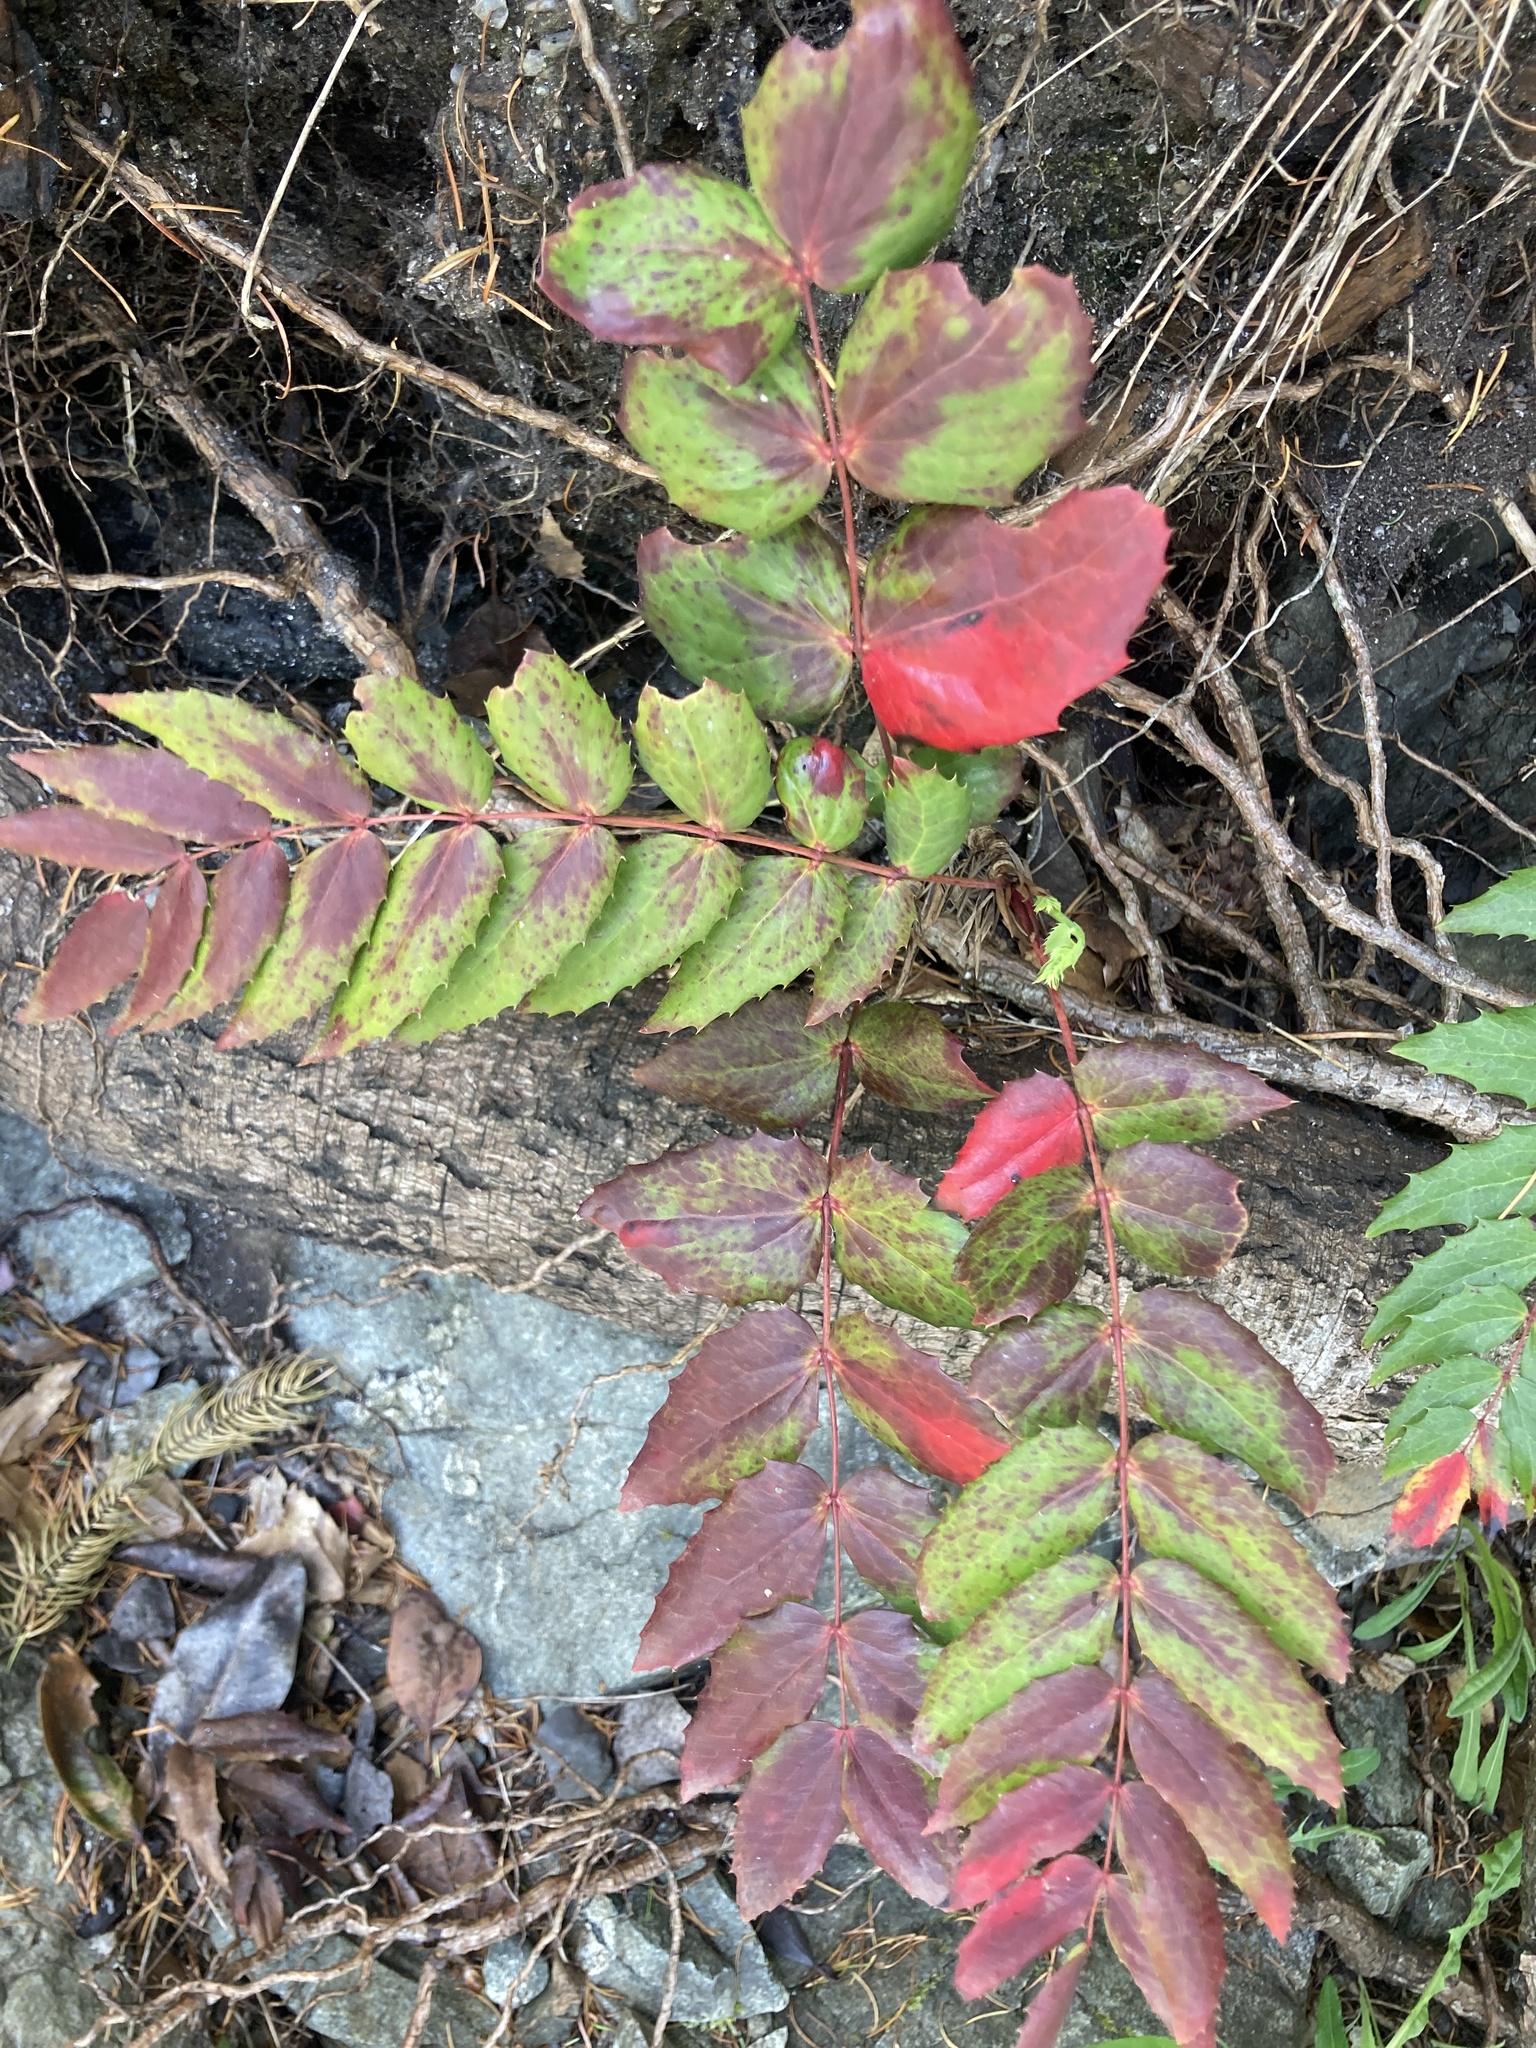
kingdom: Plantae
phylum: Tracheophyta
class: Magnoliopsida
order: Ranunculales
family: Berberidaceae
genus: Mahonia
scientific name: Mahonia nervosa
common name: Cascade oregon-grape
